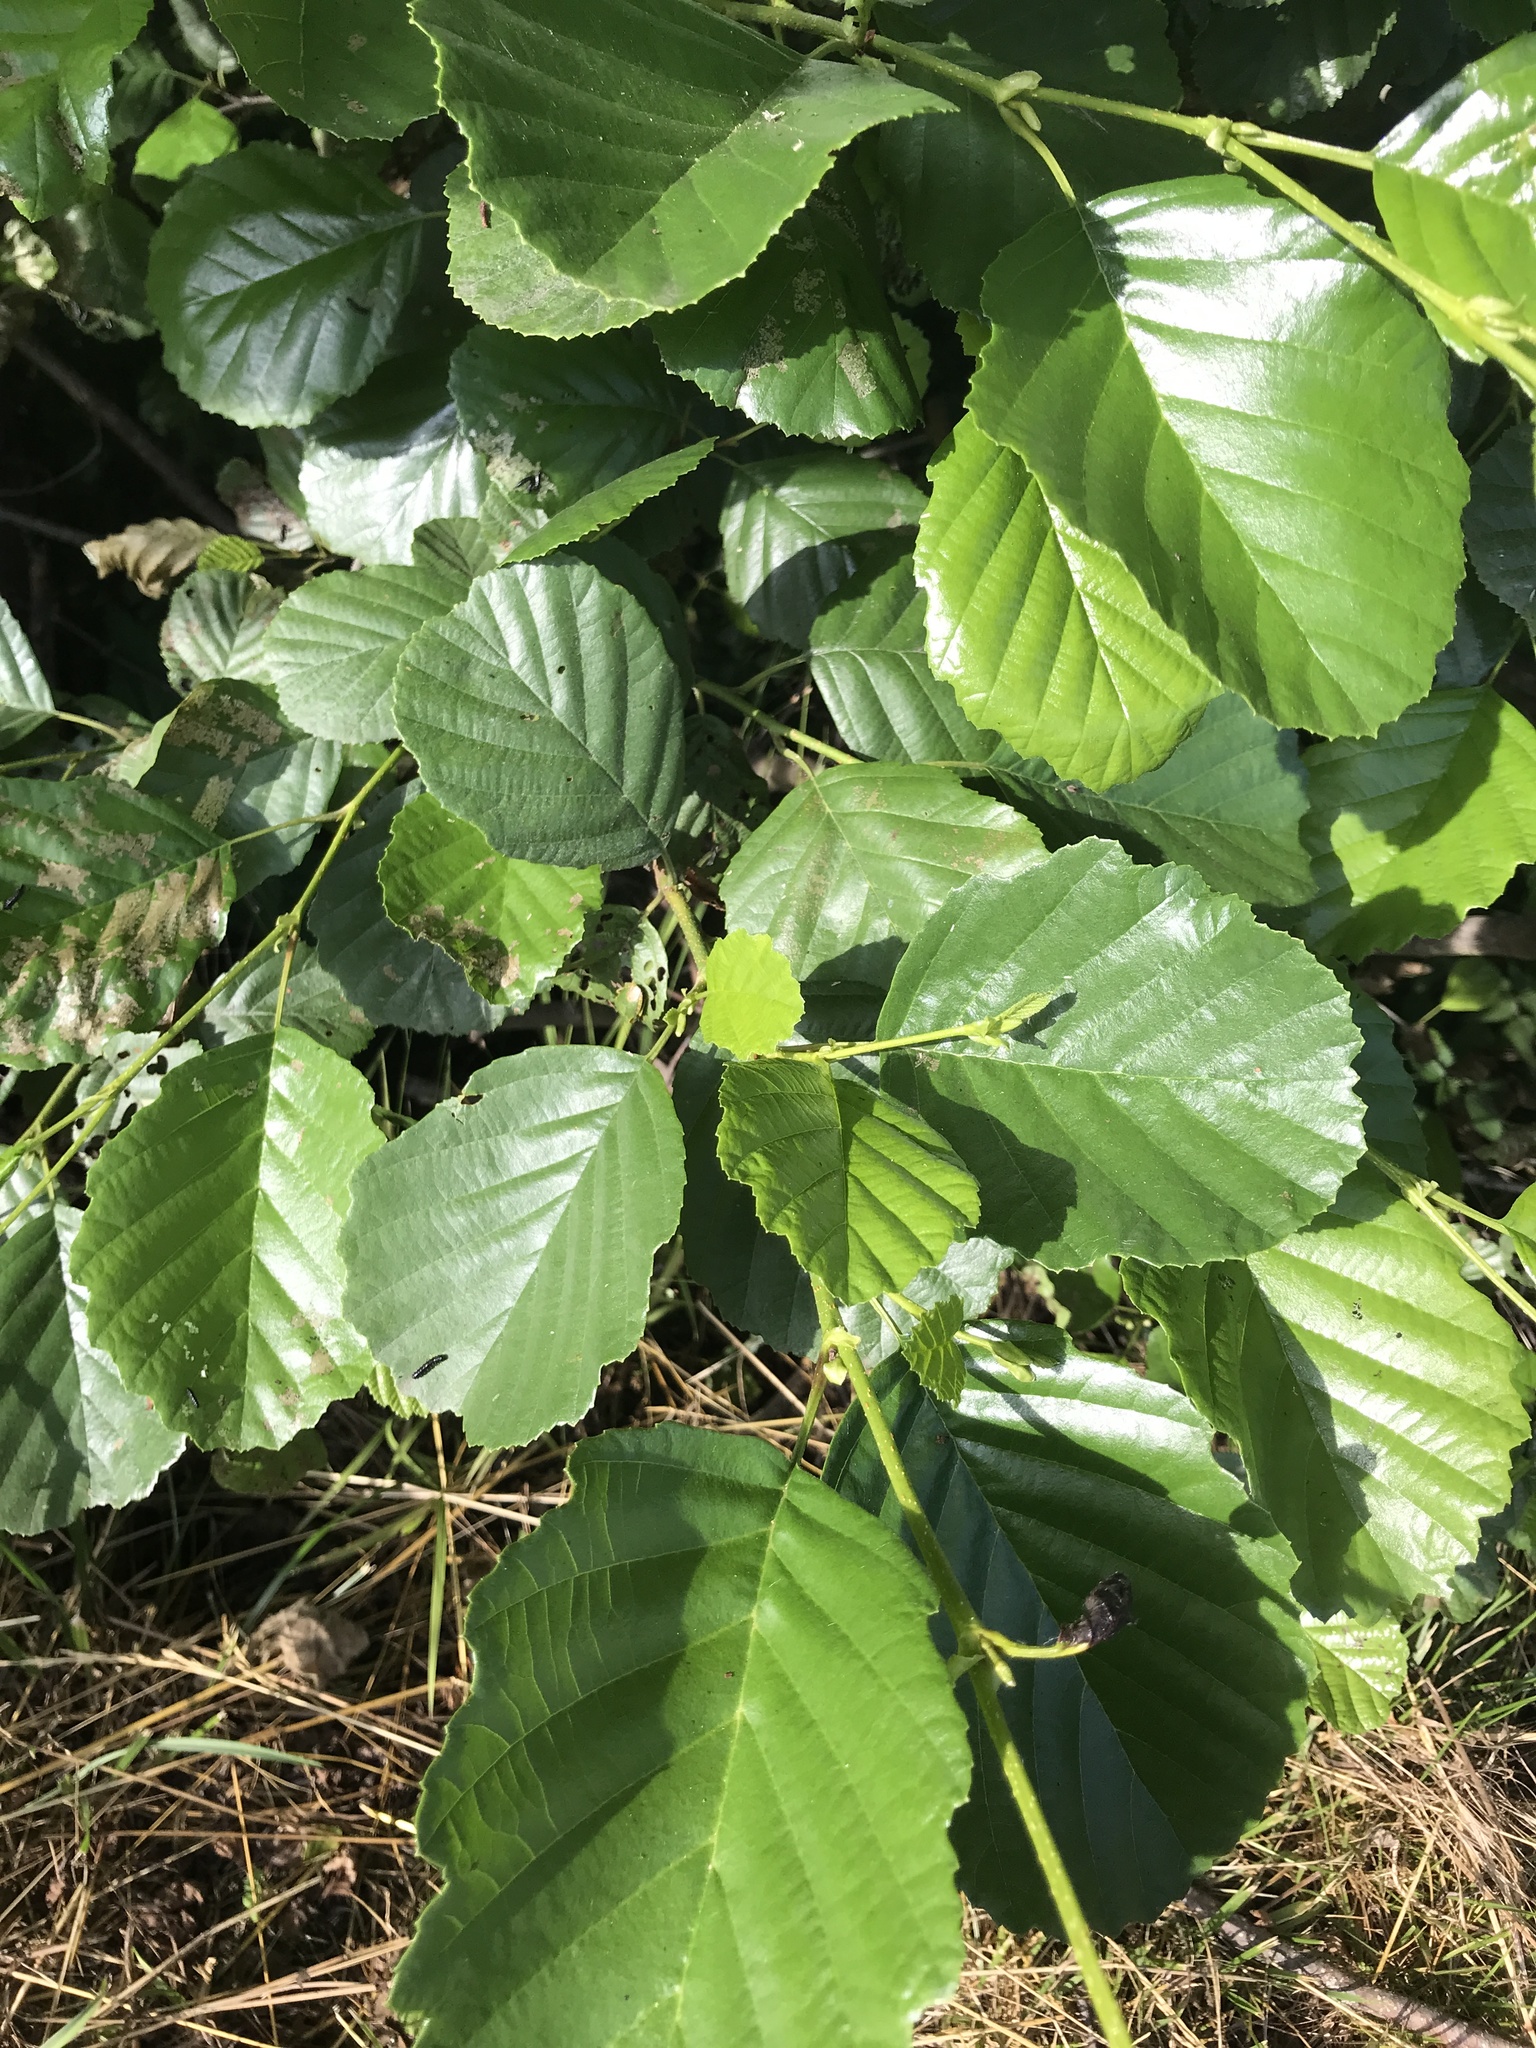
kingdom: Plantae
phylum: Tracheophyta
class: Magnoliopsida
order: Fagales
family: Betulaceae
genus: Alnus
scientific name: Alnus glutinosa
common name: Black alder
